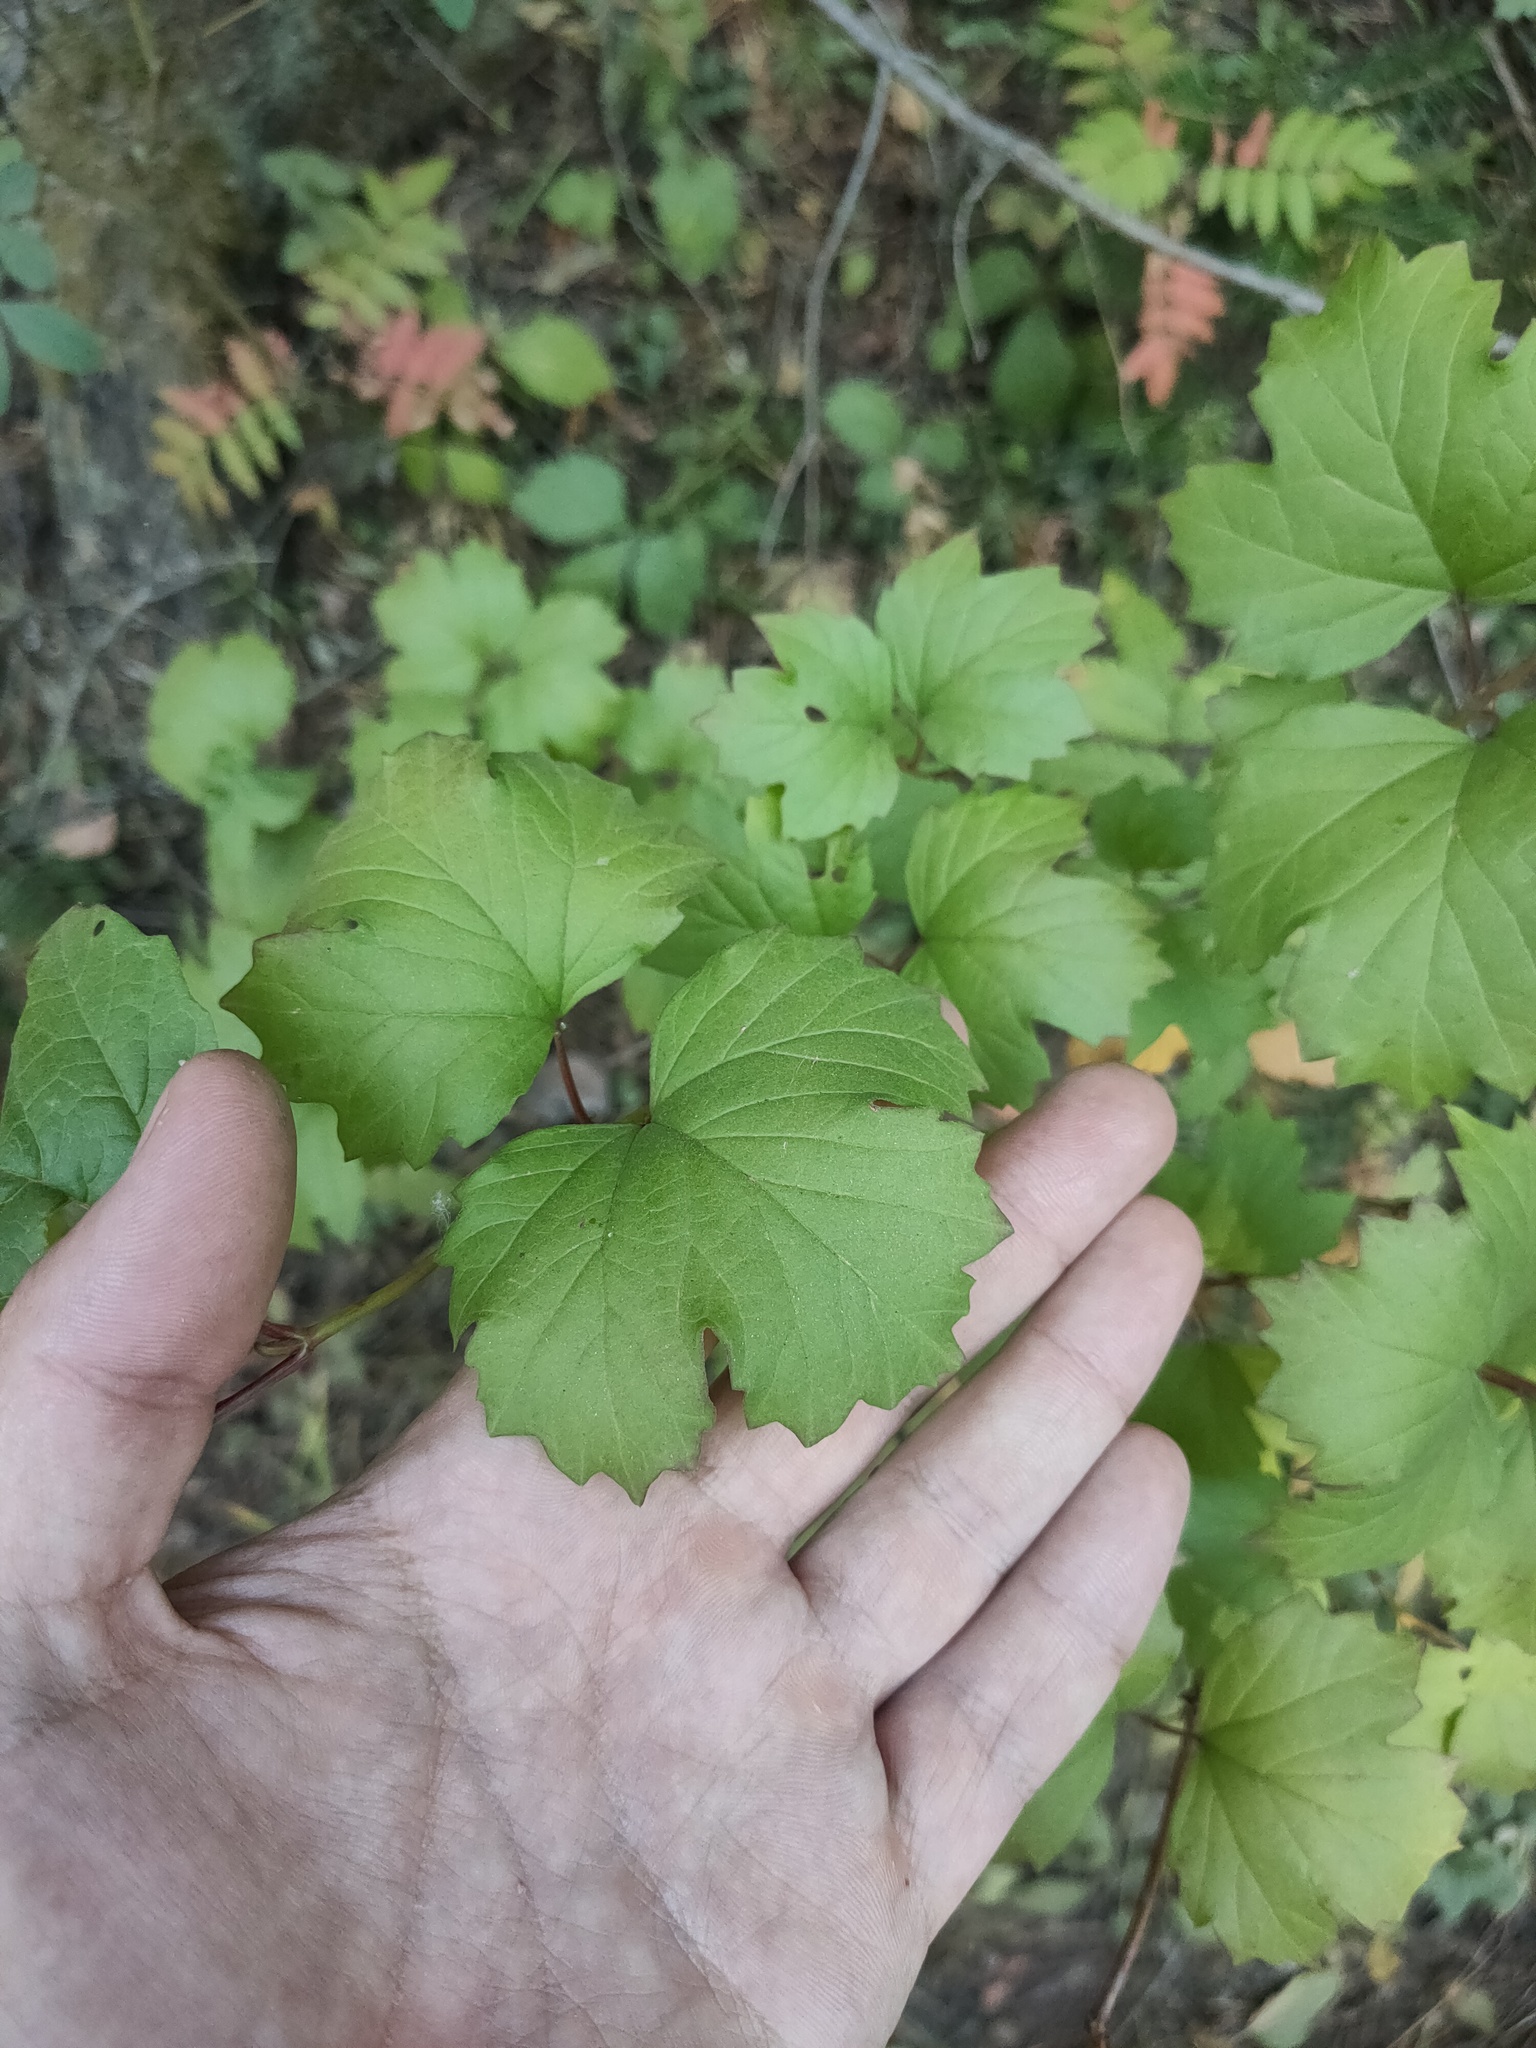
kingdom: Plantae
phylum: Tracheophyta
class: Magnoliopsida
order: Dipsacales
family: Viburnaceae
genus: Viburnum
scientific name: Viburnum opulus
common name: Guelder-rose
